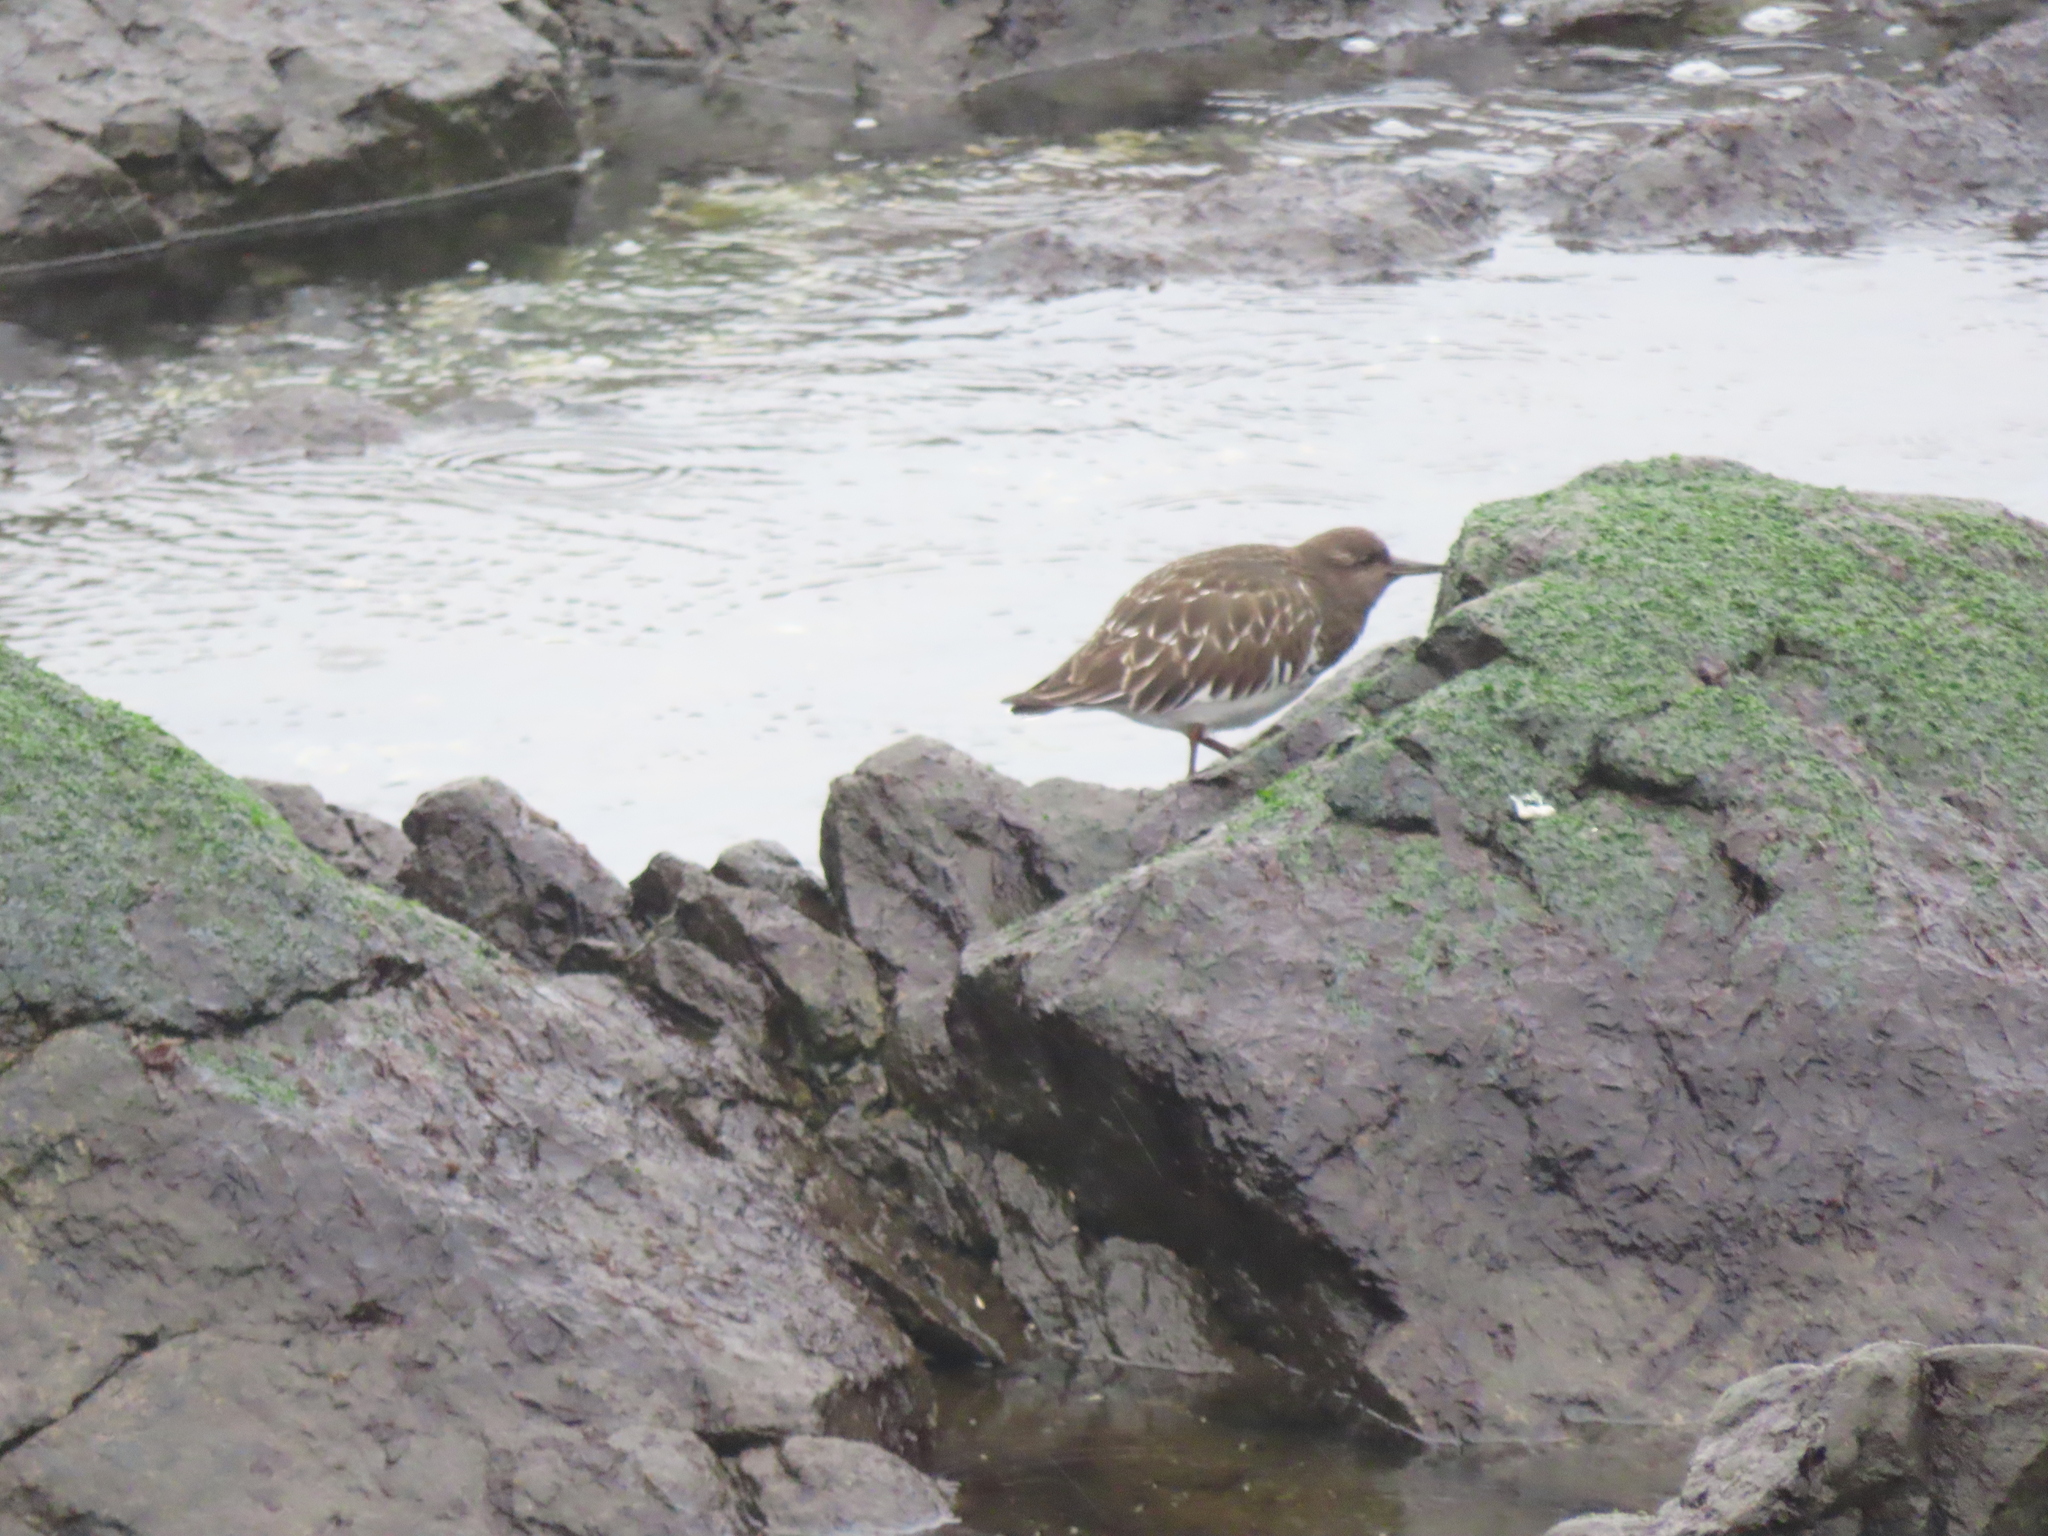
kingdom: Animalia
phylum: Chordata
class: Aves
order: Charadriiformes
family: Scolopacidae
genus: Arenaria
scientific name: Arenaria melanocephala
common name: Black turnstone
